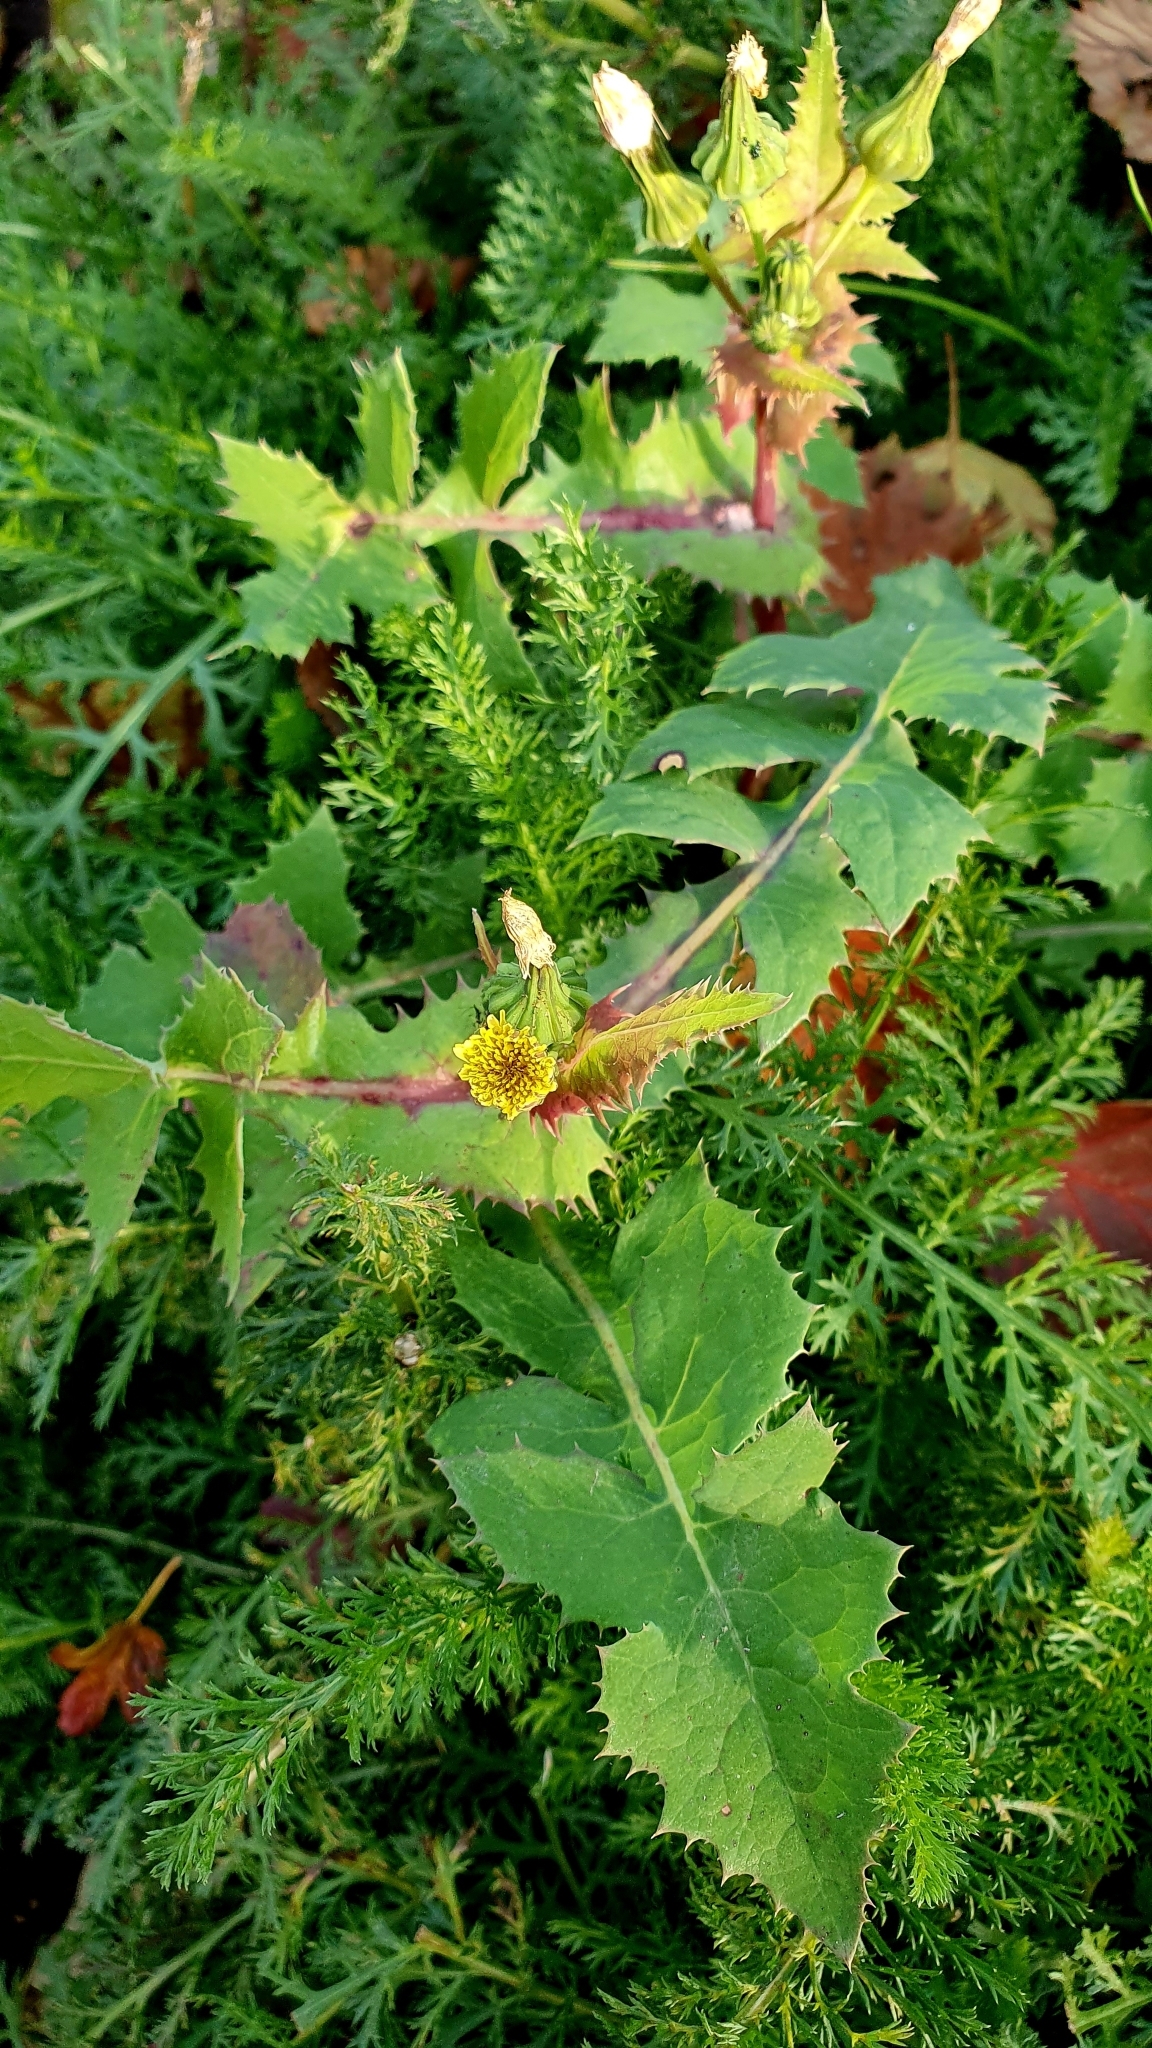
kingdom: Plantae
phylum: Tracheophyta
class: Magnoliopsida
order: Asterales
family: Asteraceae
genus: Sonchus
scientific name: Sonchus oleraceus
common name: Common sowthistle
